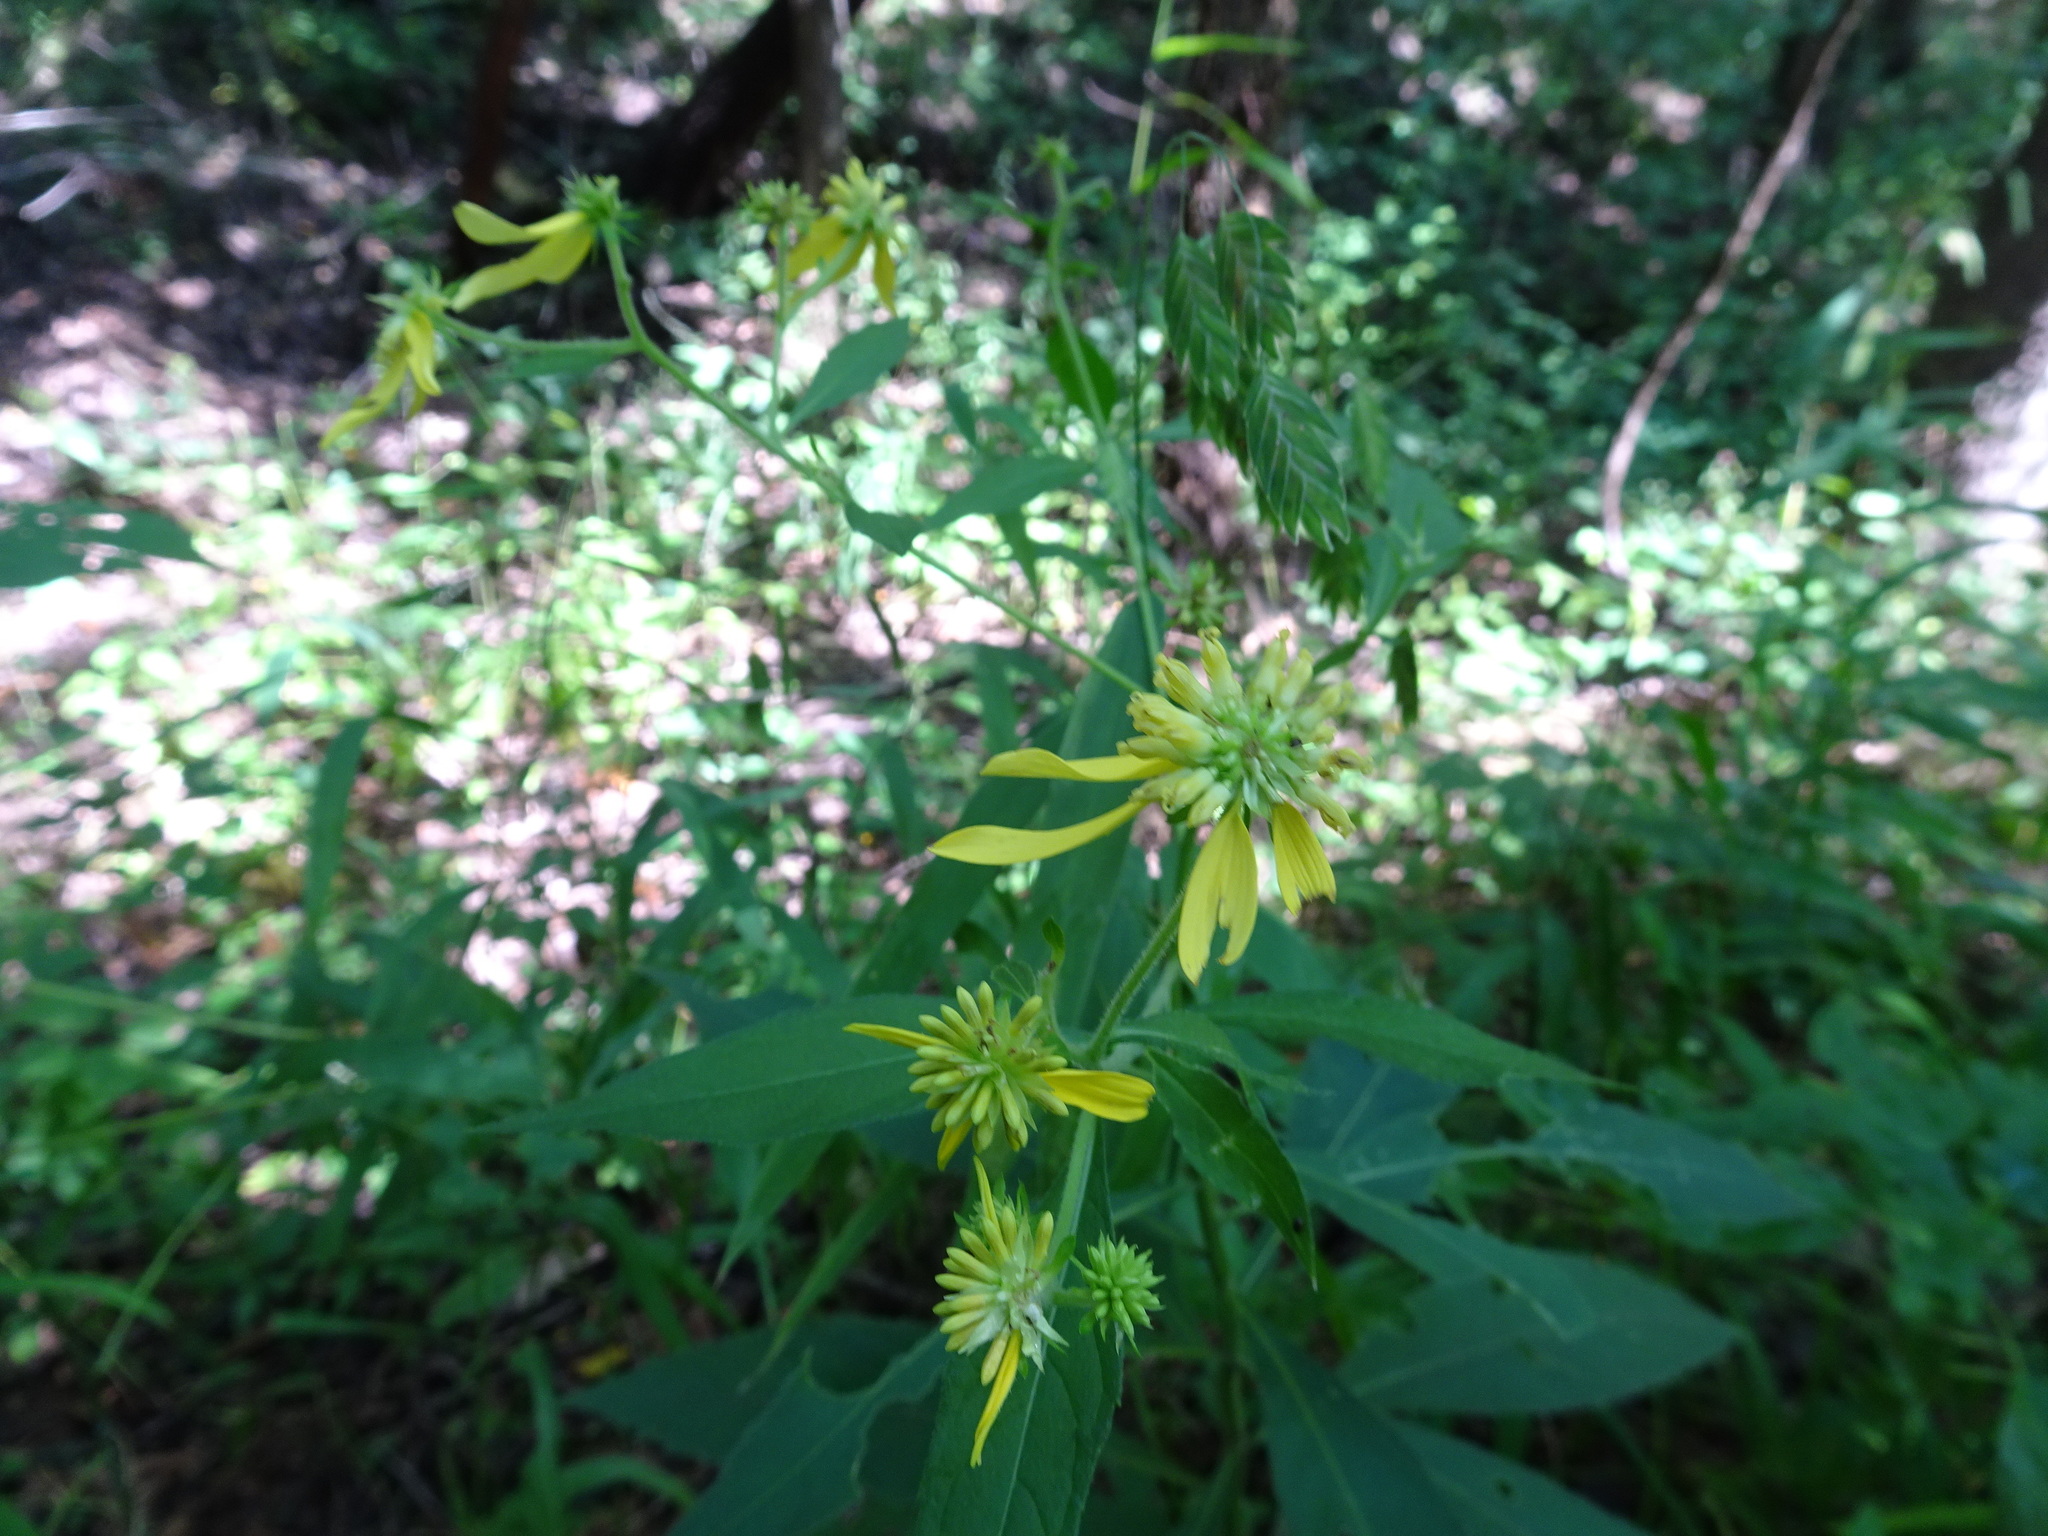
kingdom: Plantae
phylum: Tracheophyta
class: Magnoliopsida
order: Asterales
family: Asteraceae
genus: Verbesina
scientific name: Verbesina alternifolia
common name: Wingstem
